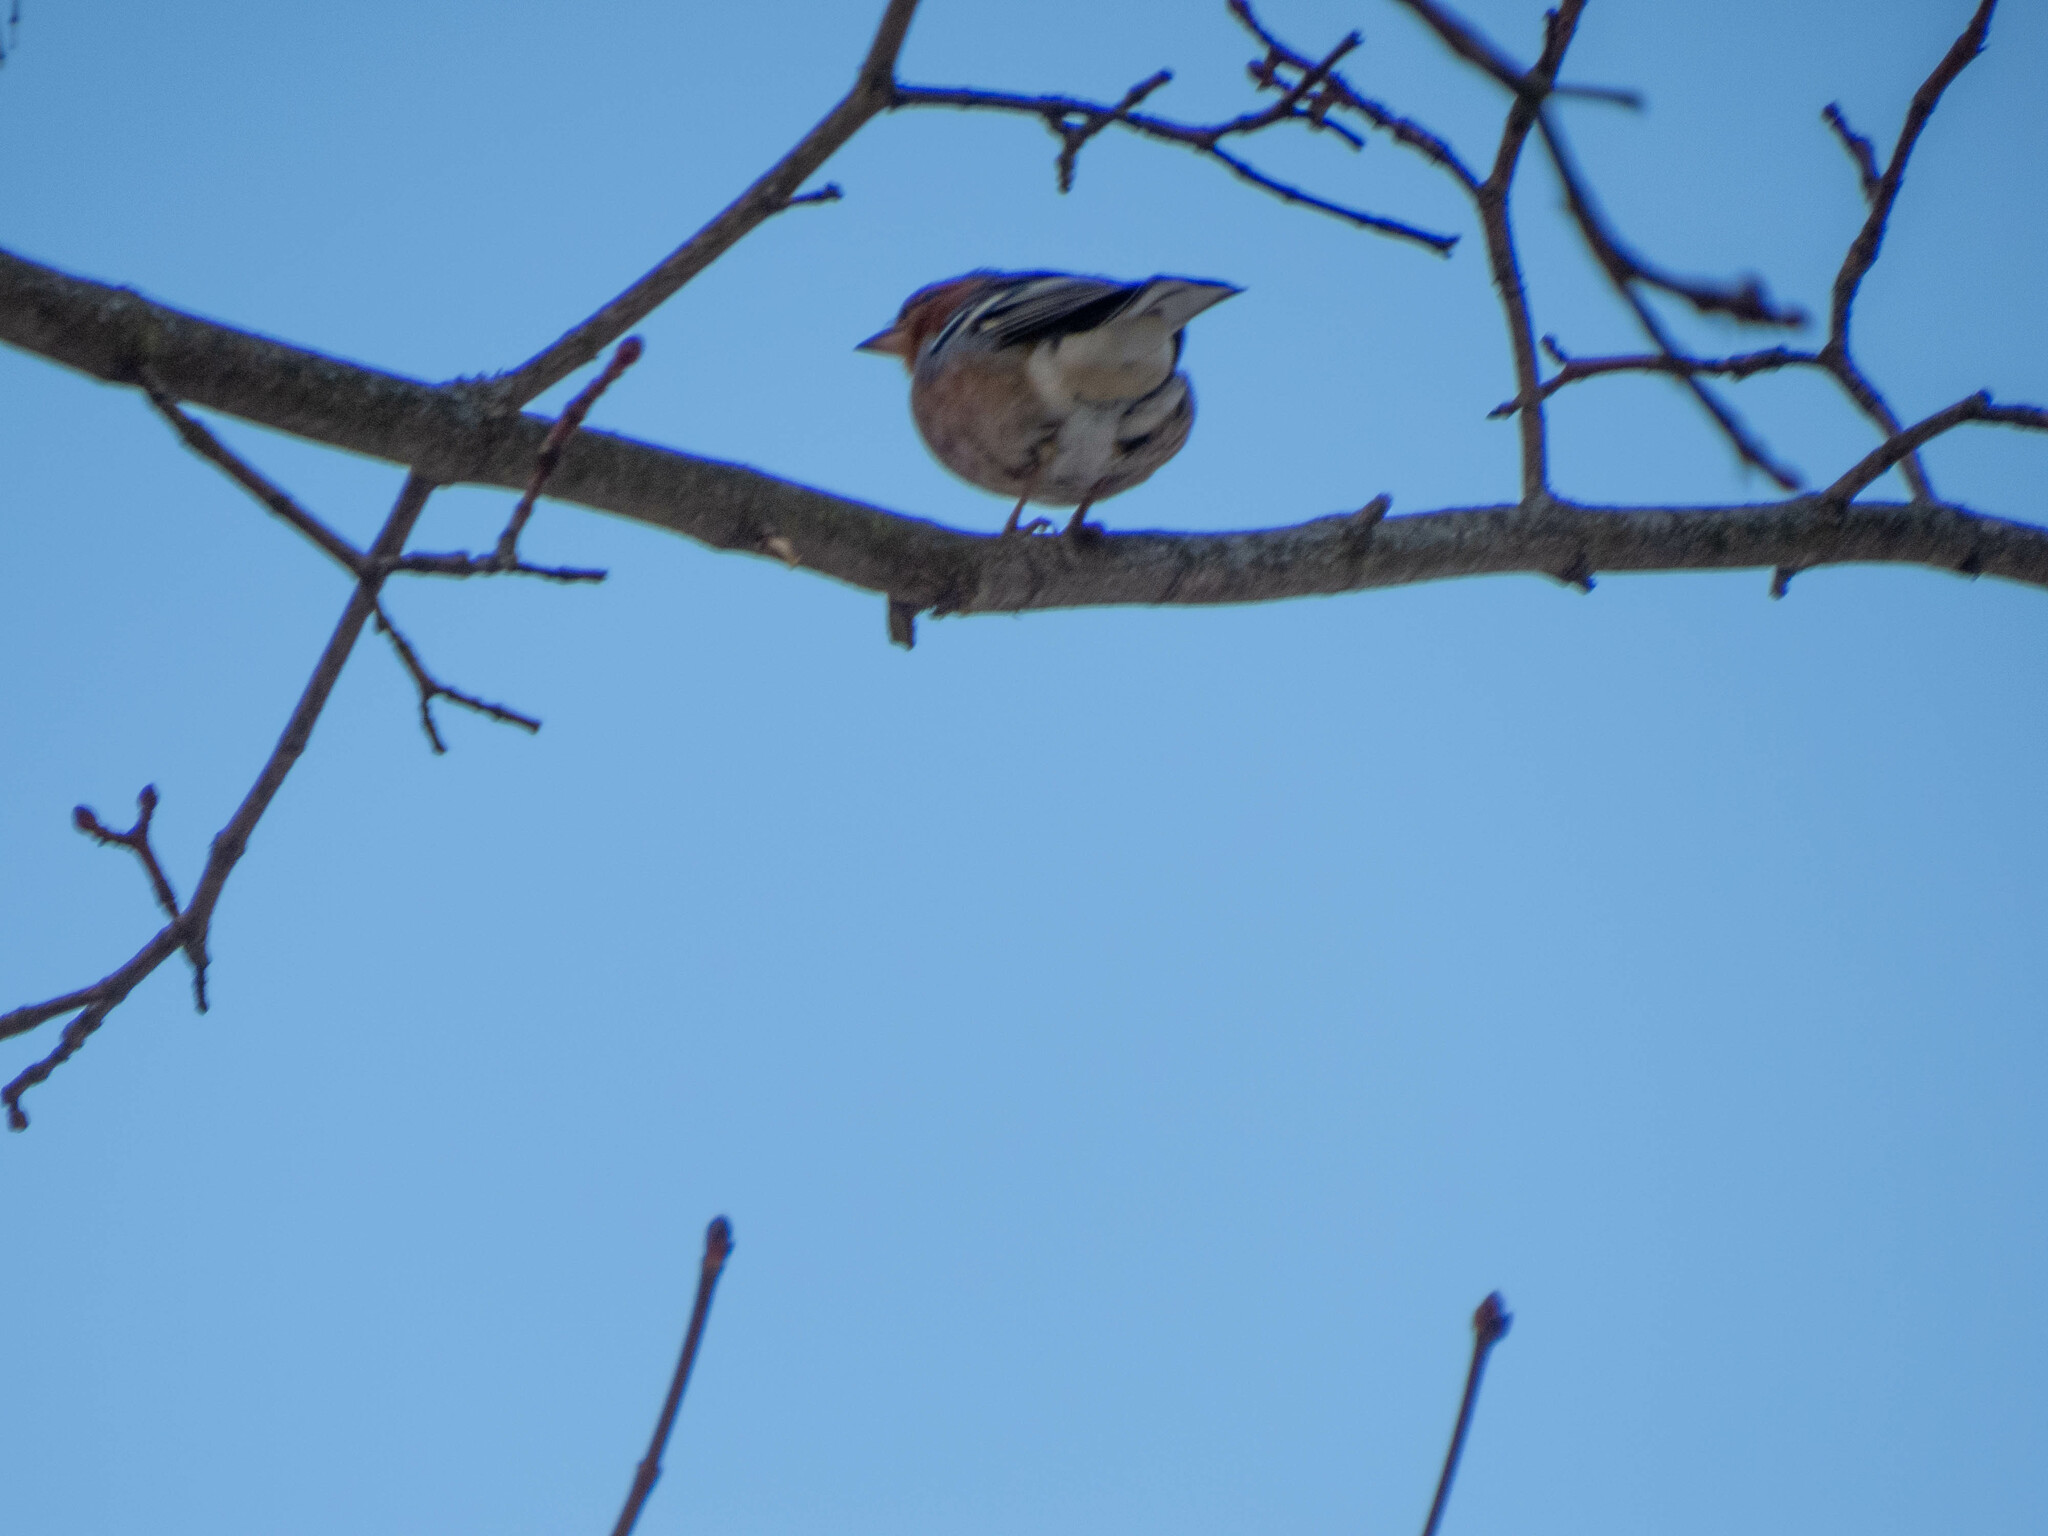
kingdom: Animalia
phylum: Chordata
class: Aves
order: Passeriformes
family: Fringillidae
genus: Fringilla
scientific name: Fringilla coelebs
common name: Common chaffinch
